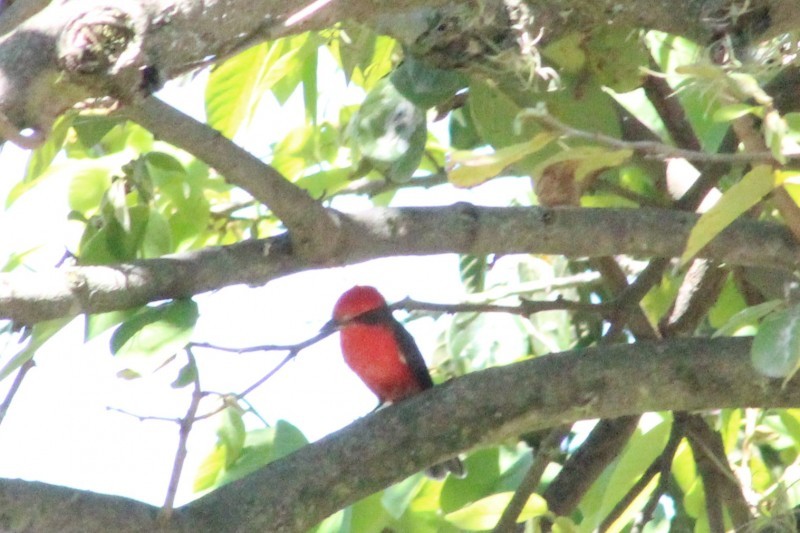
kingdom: Animalia
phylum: Chordata
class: Aves
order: Passeriformes
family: Tyrannidae
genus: Pyrocephalus
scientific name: Pyrocephalus rubinus
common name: Vermilion flycatcher
